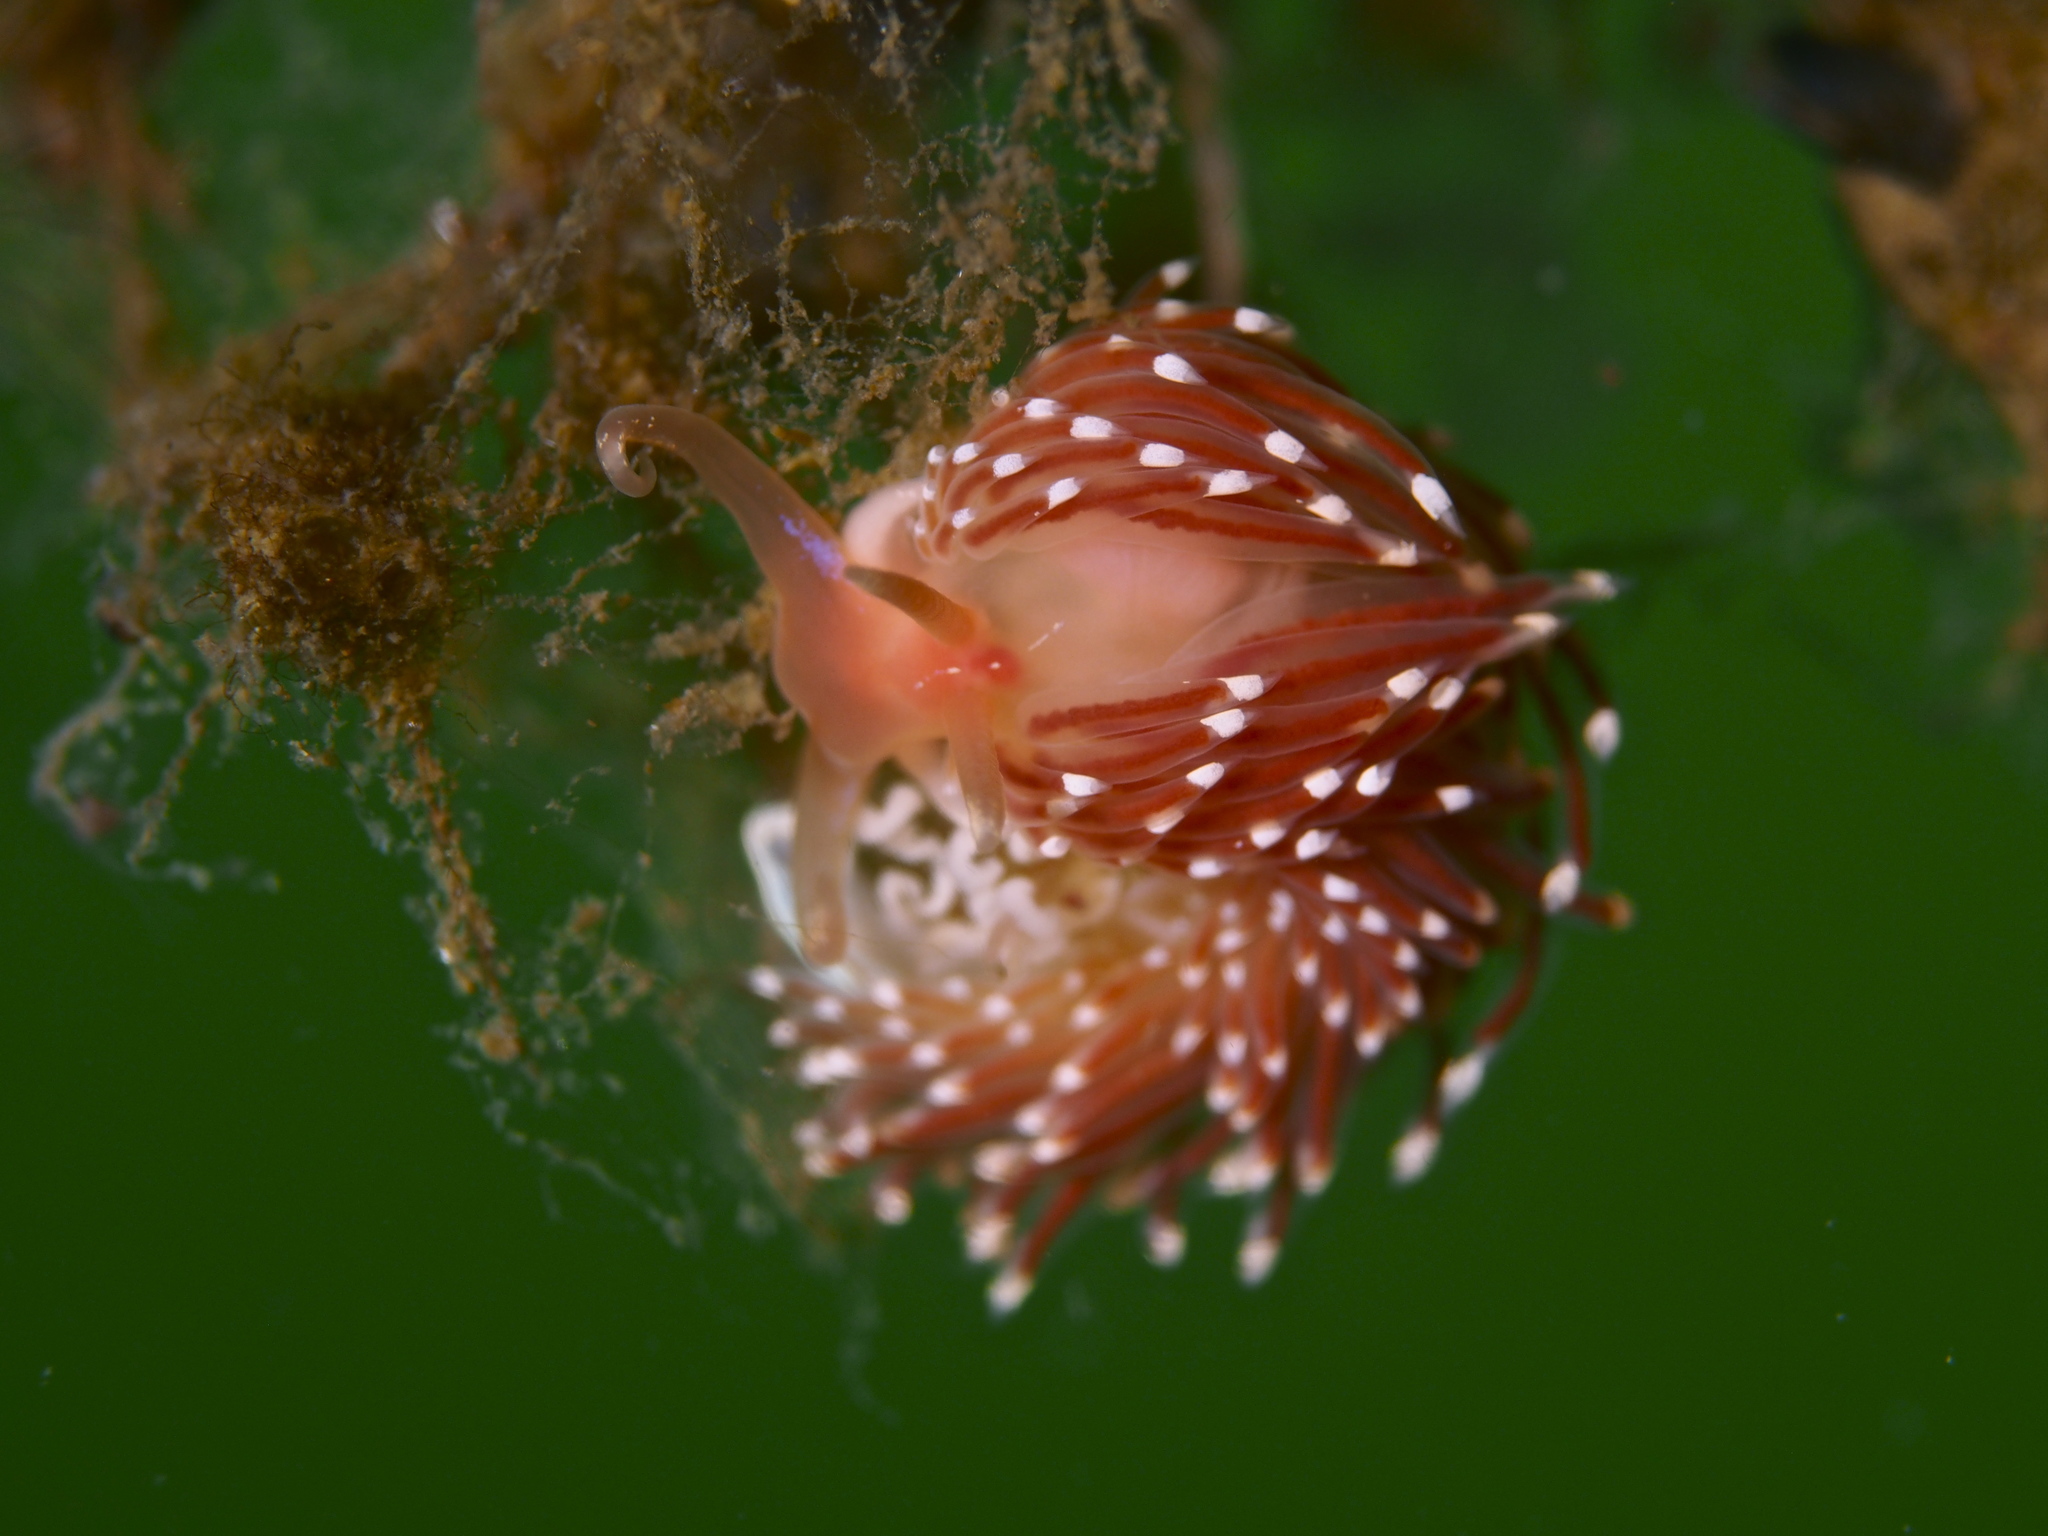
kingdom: Animalia
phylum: Mollusca
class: Gastropoda
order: Nudibranchia
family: Facelinidae
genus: Facelina
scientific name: Facelina bostoniensis
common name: Boston facelina
